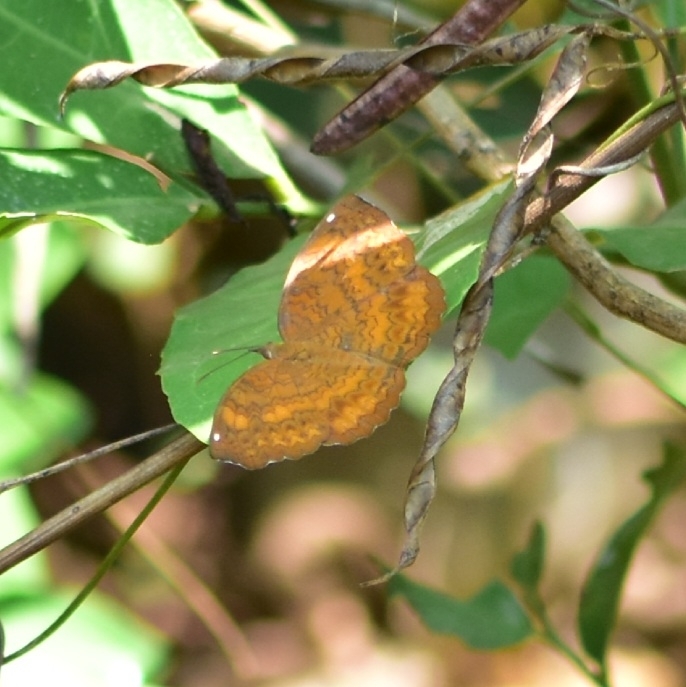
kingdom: Animalia
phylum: Arthropoda
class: Insecta
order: Lepidoptera
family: Nymphalidae
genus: Ariadne
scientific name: Ariadne merione
